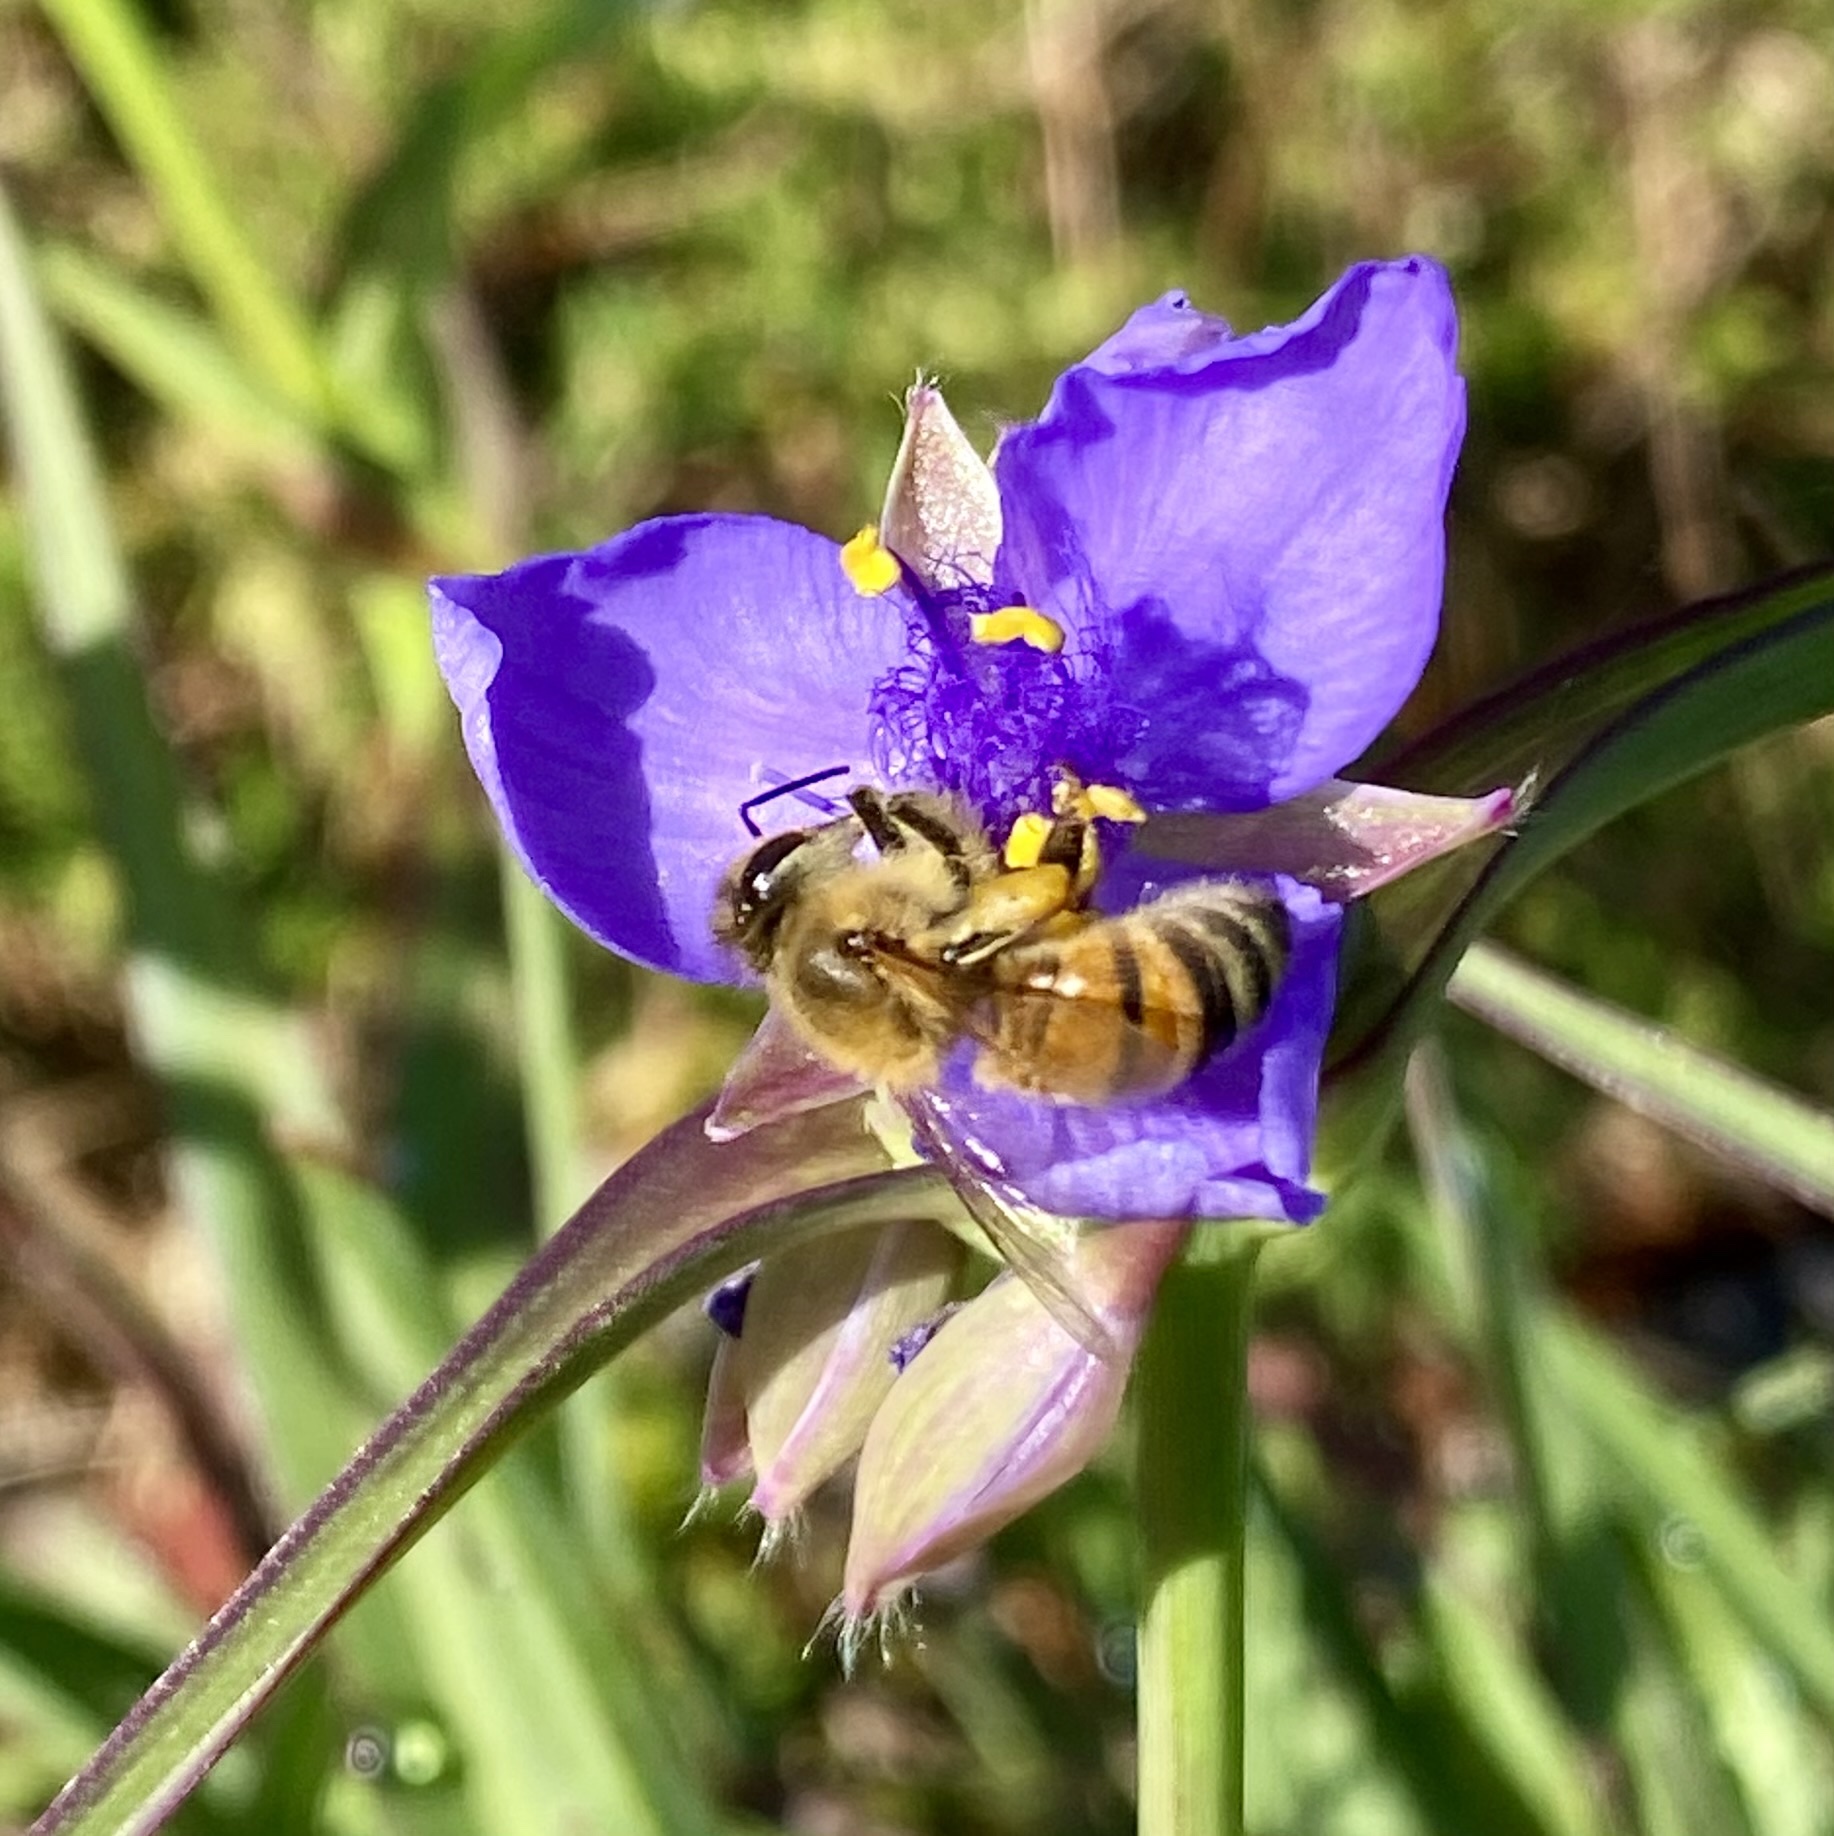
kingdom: Animalia
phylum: Arthropoda
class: Insecta
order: Hymenoptera
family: Apidae
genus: Apis
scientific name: Apis mellifera
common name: Honey bee
